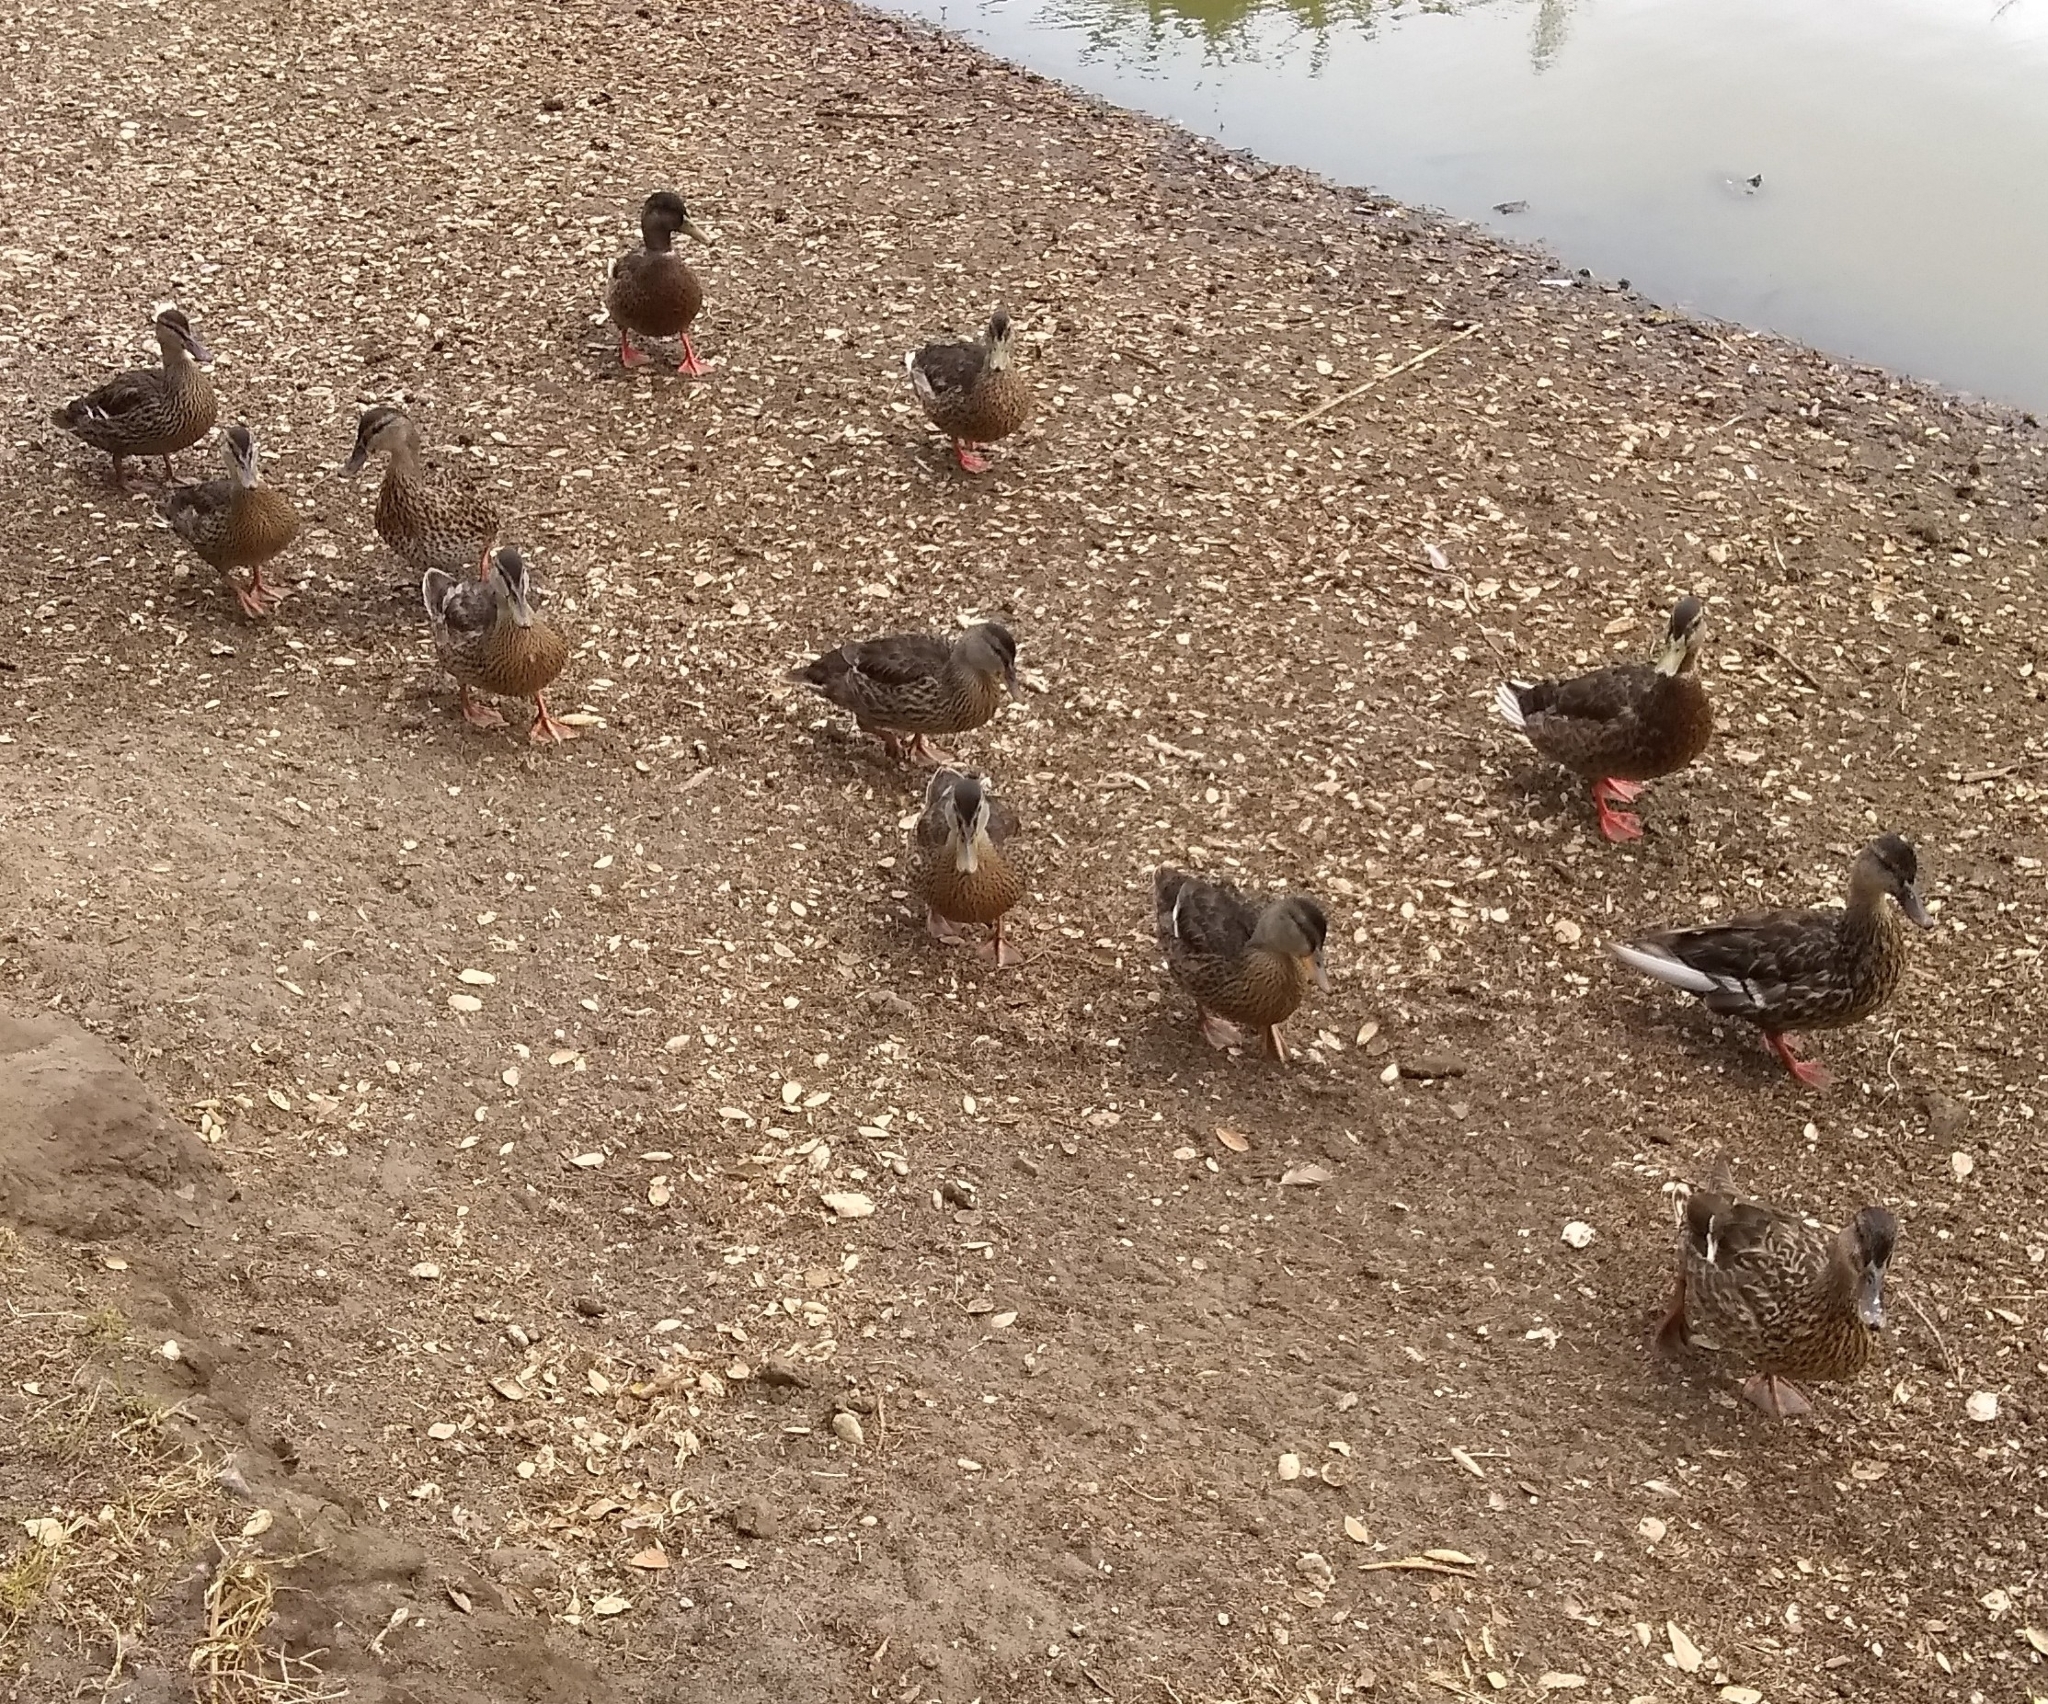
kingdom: Animalia
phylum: Chordata
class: Aves
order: Anseriformes
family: Anatidae
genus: Anas
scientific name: Anas platyrhynchos
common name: Mallard
